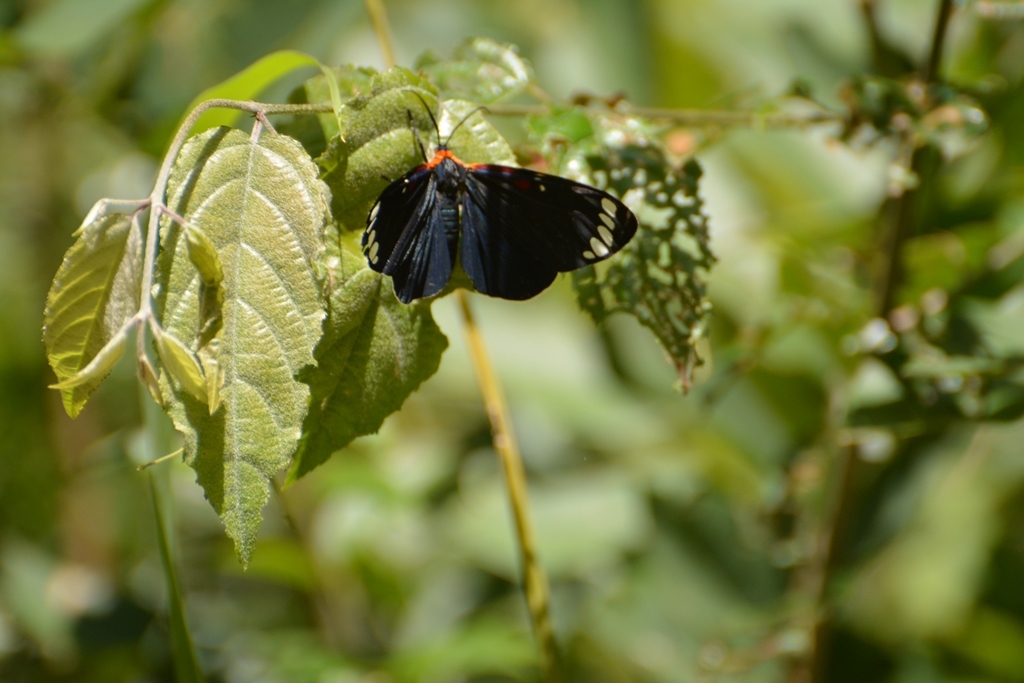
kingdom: Animalia
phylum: Arthropoda
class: Insecta
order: Lepidoptera
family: Erebidae
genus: Phaloesia
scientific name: Phaloesia saucia
